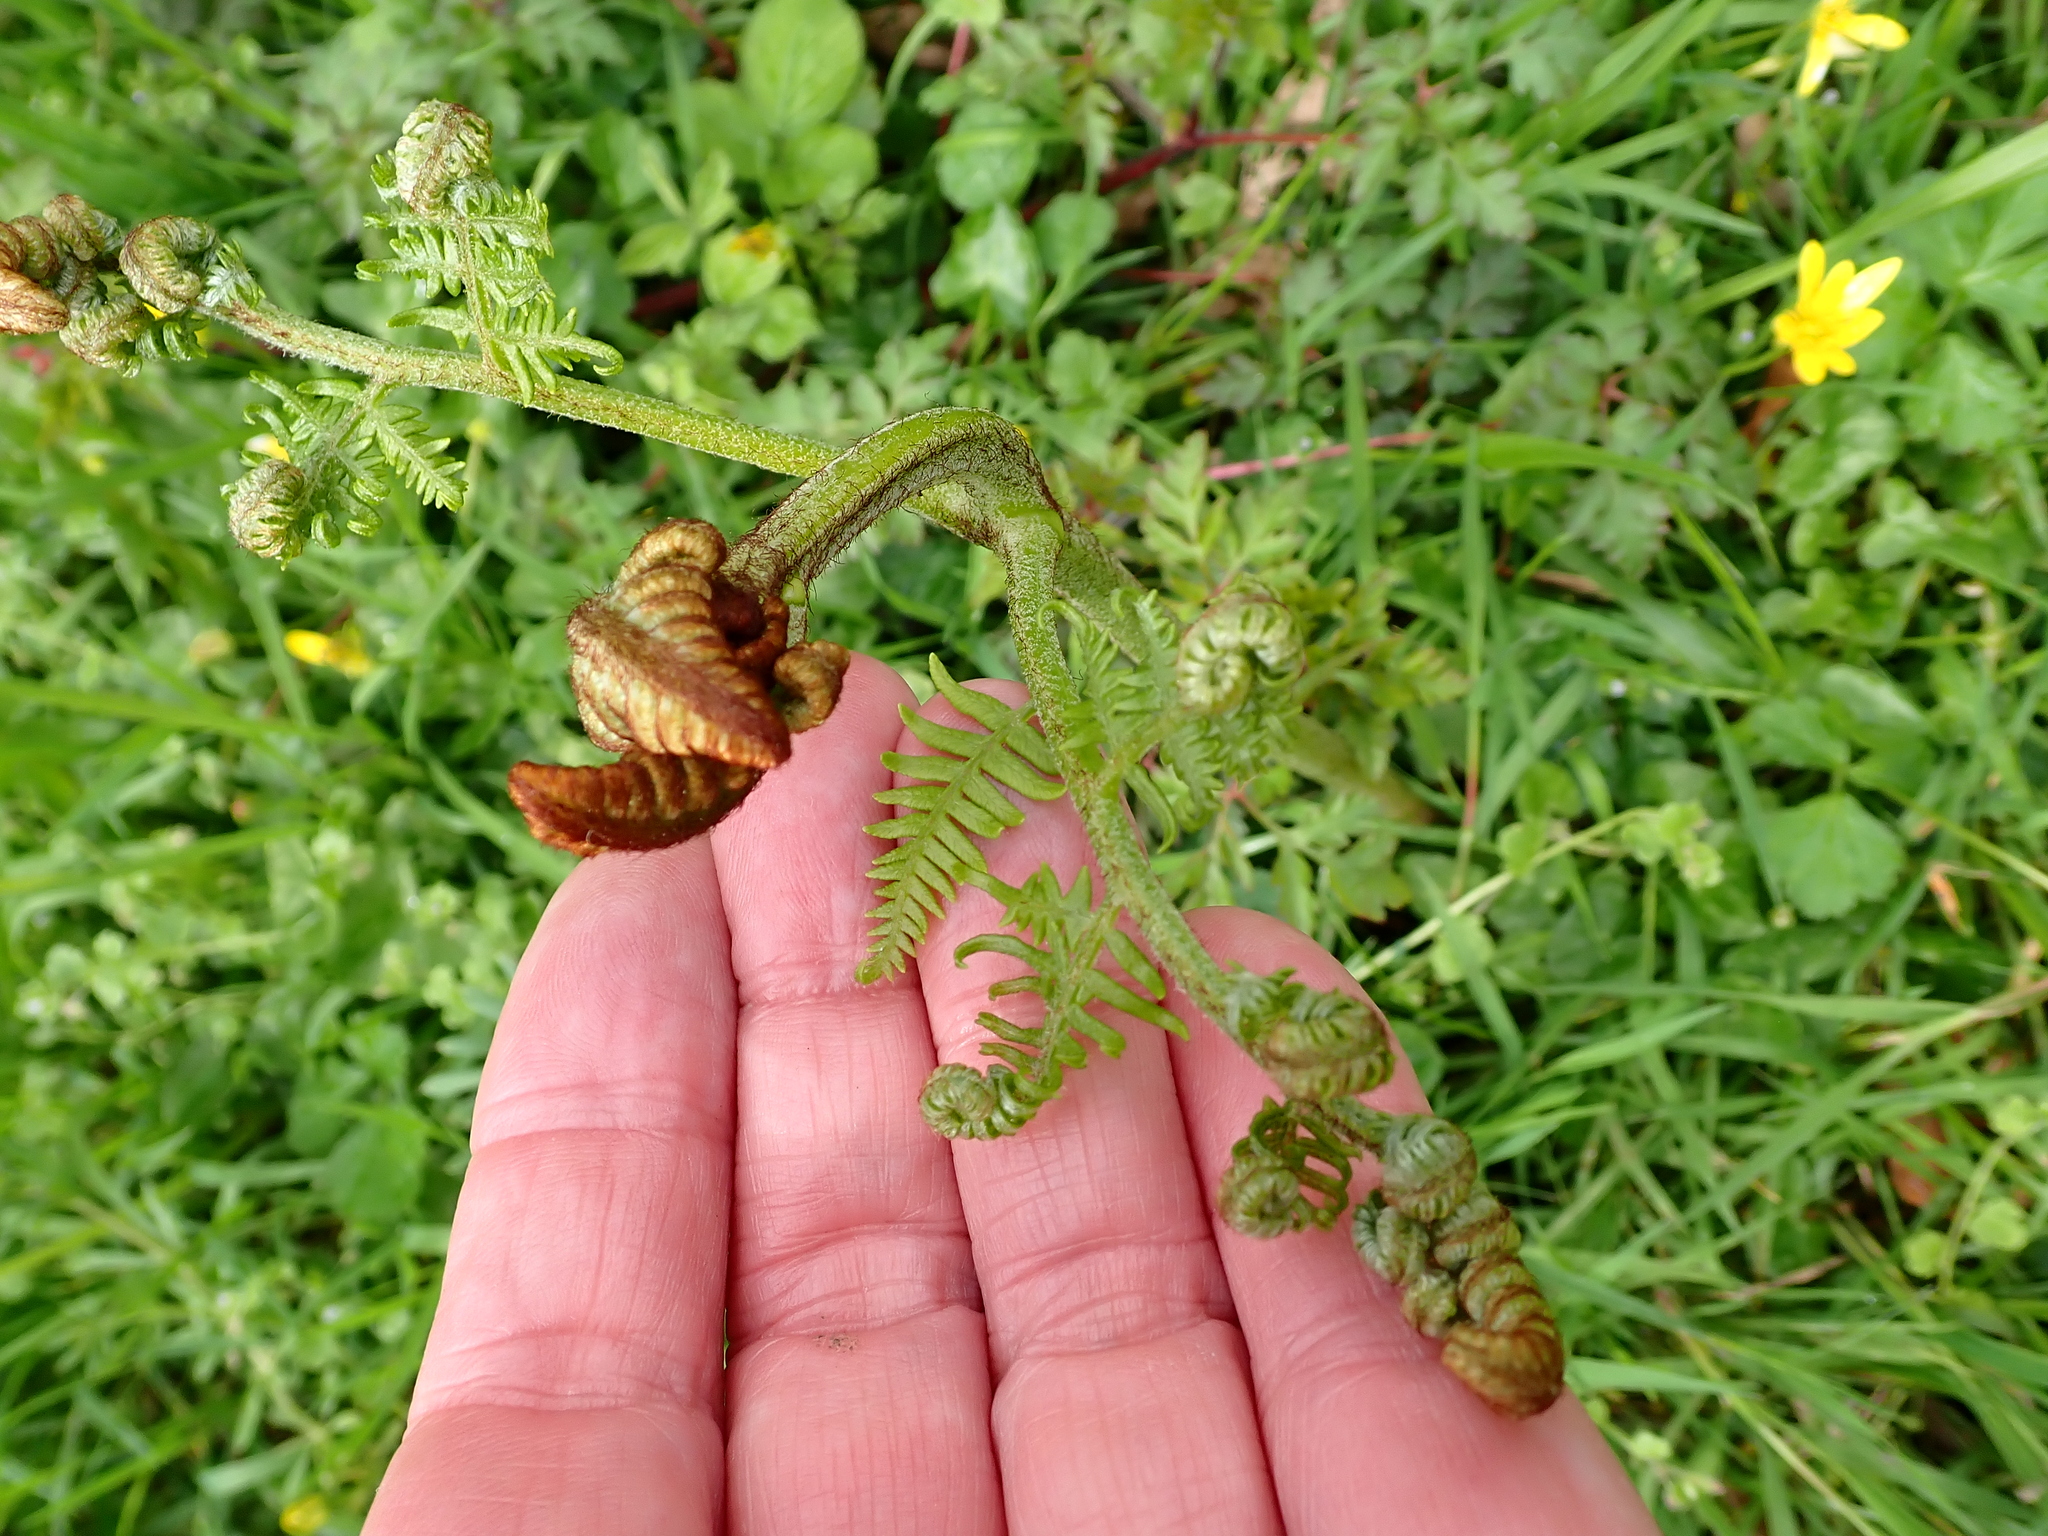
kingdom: Plantae
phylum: Tracheophyta
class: Polypodiopsida
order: Polypodiales
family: Dennstaedtiaceae
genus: Pteridium
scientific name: Pteridium aquilinum
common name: Bracken
